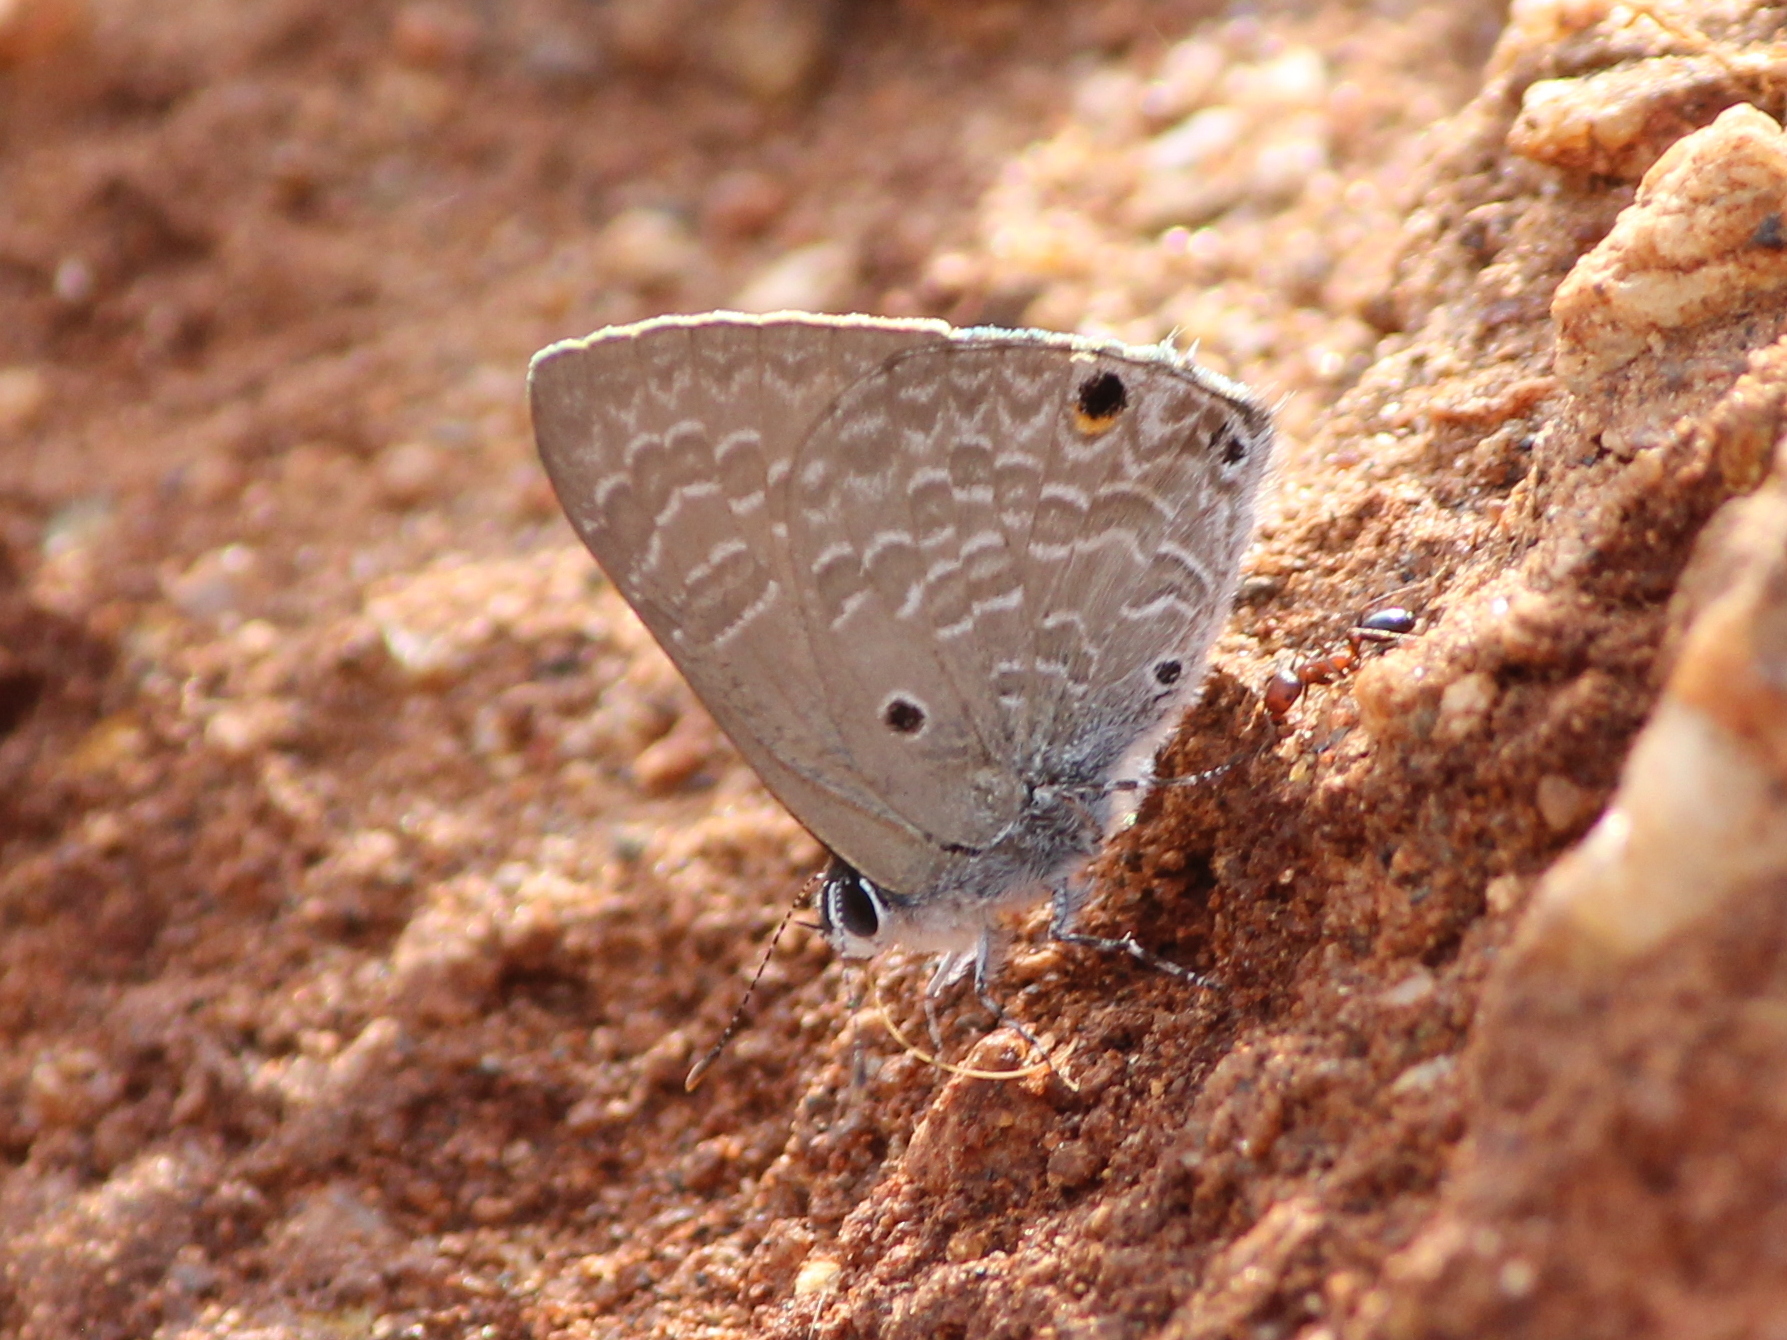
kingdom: Animalia
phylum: Arthropoda
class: Insecta
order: Lepidoptera
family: Lycaenidae
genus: Anthene
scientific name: Anthene lycaenina
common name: Pointed ciliate blue
